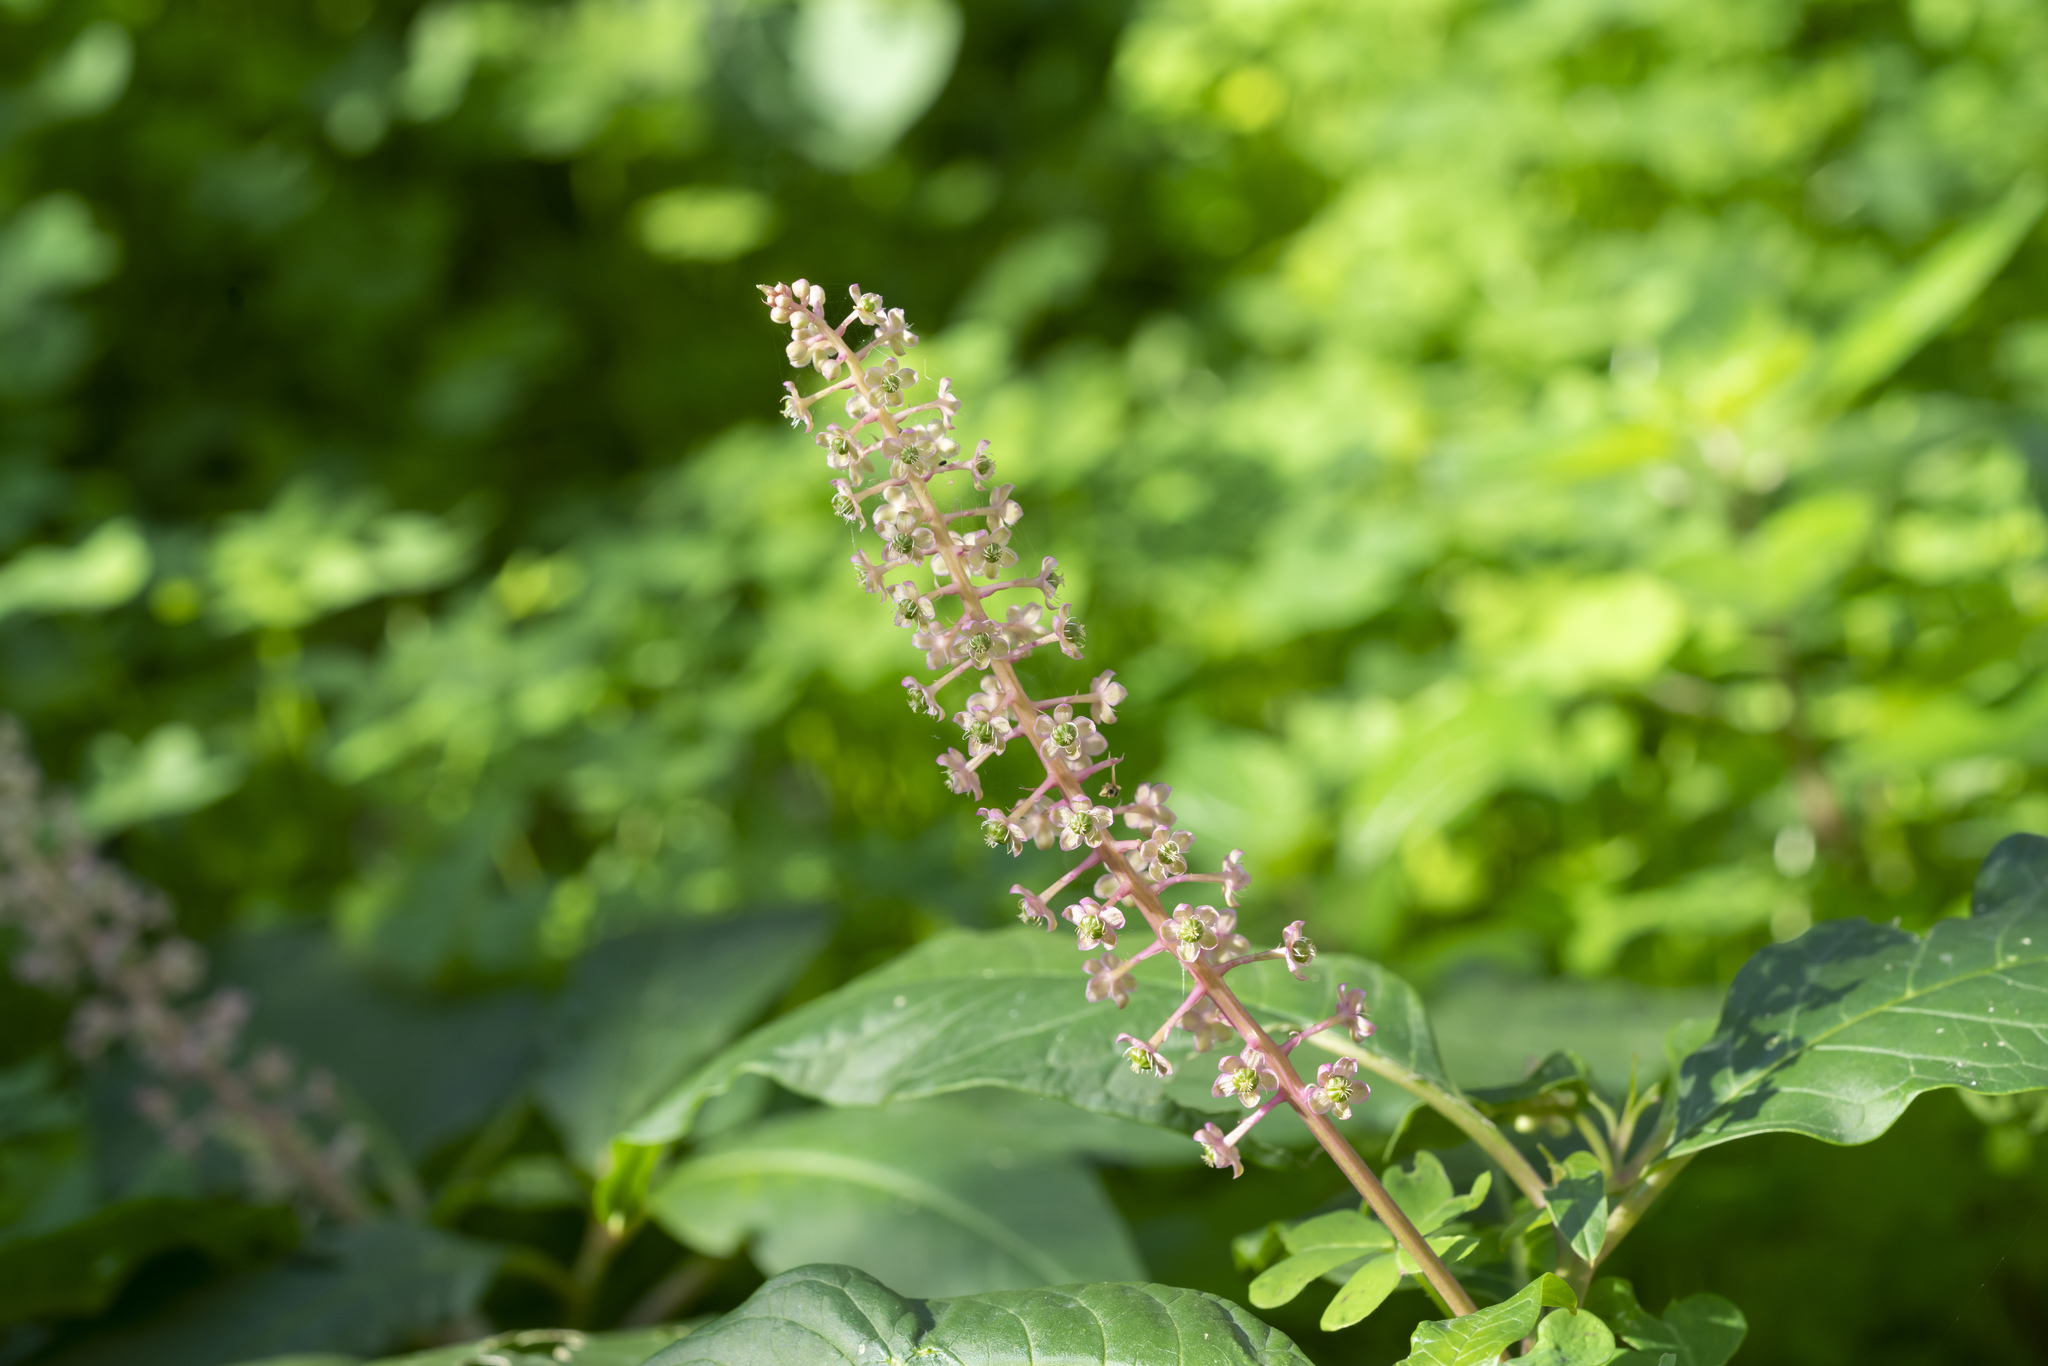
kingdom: Plantae
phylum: Tracheophyta
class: Magnoliopsida
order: Caryophyllales
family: Phytolaccaceae
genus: Phytolacca
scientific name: Phytolacca americana
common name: American pokeweed
